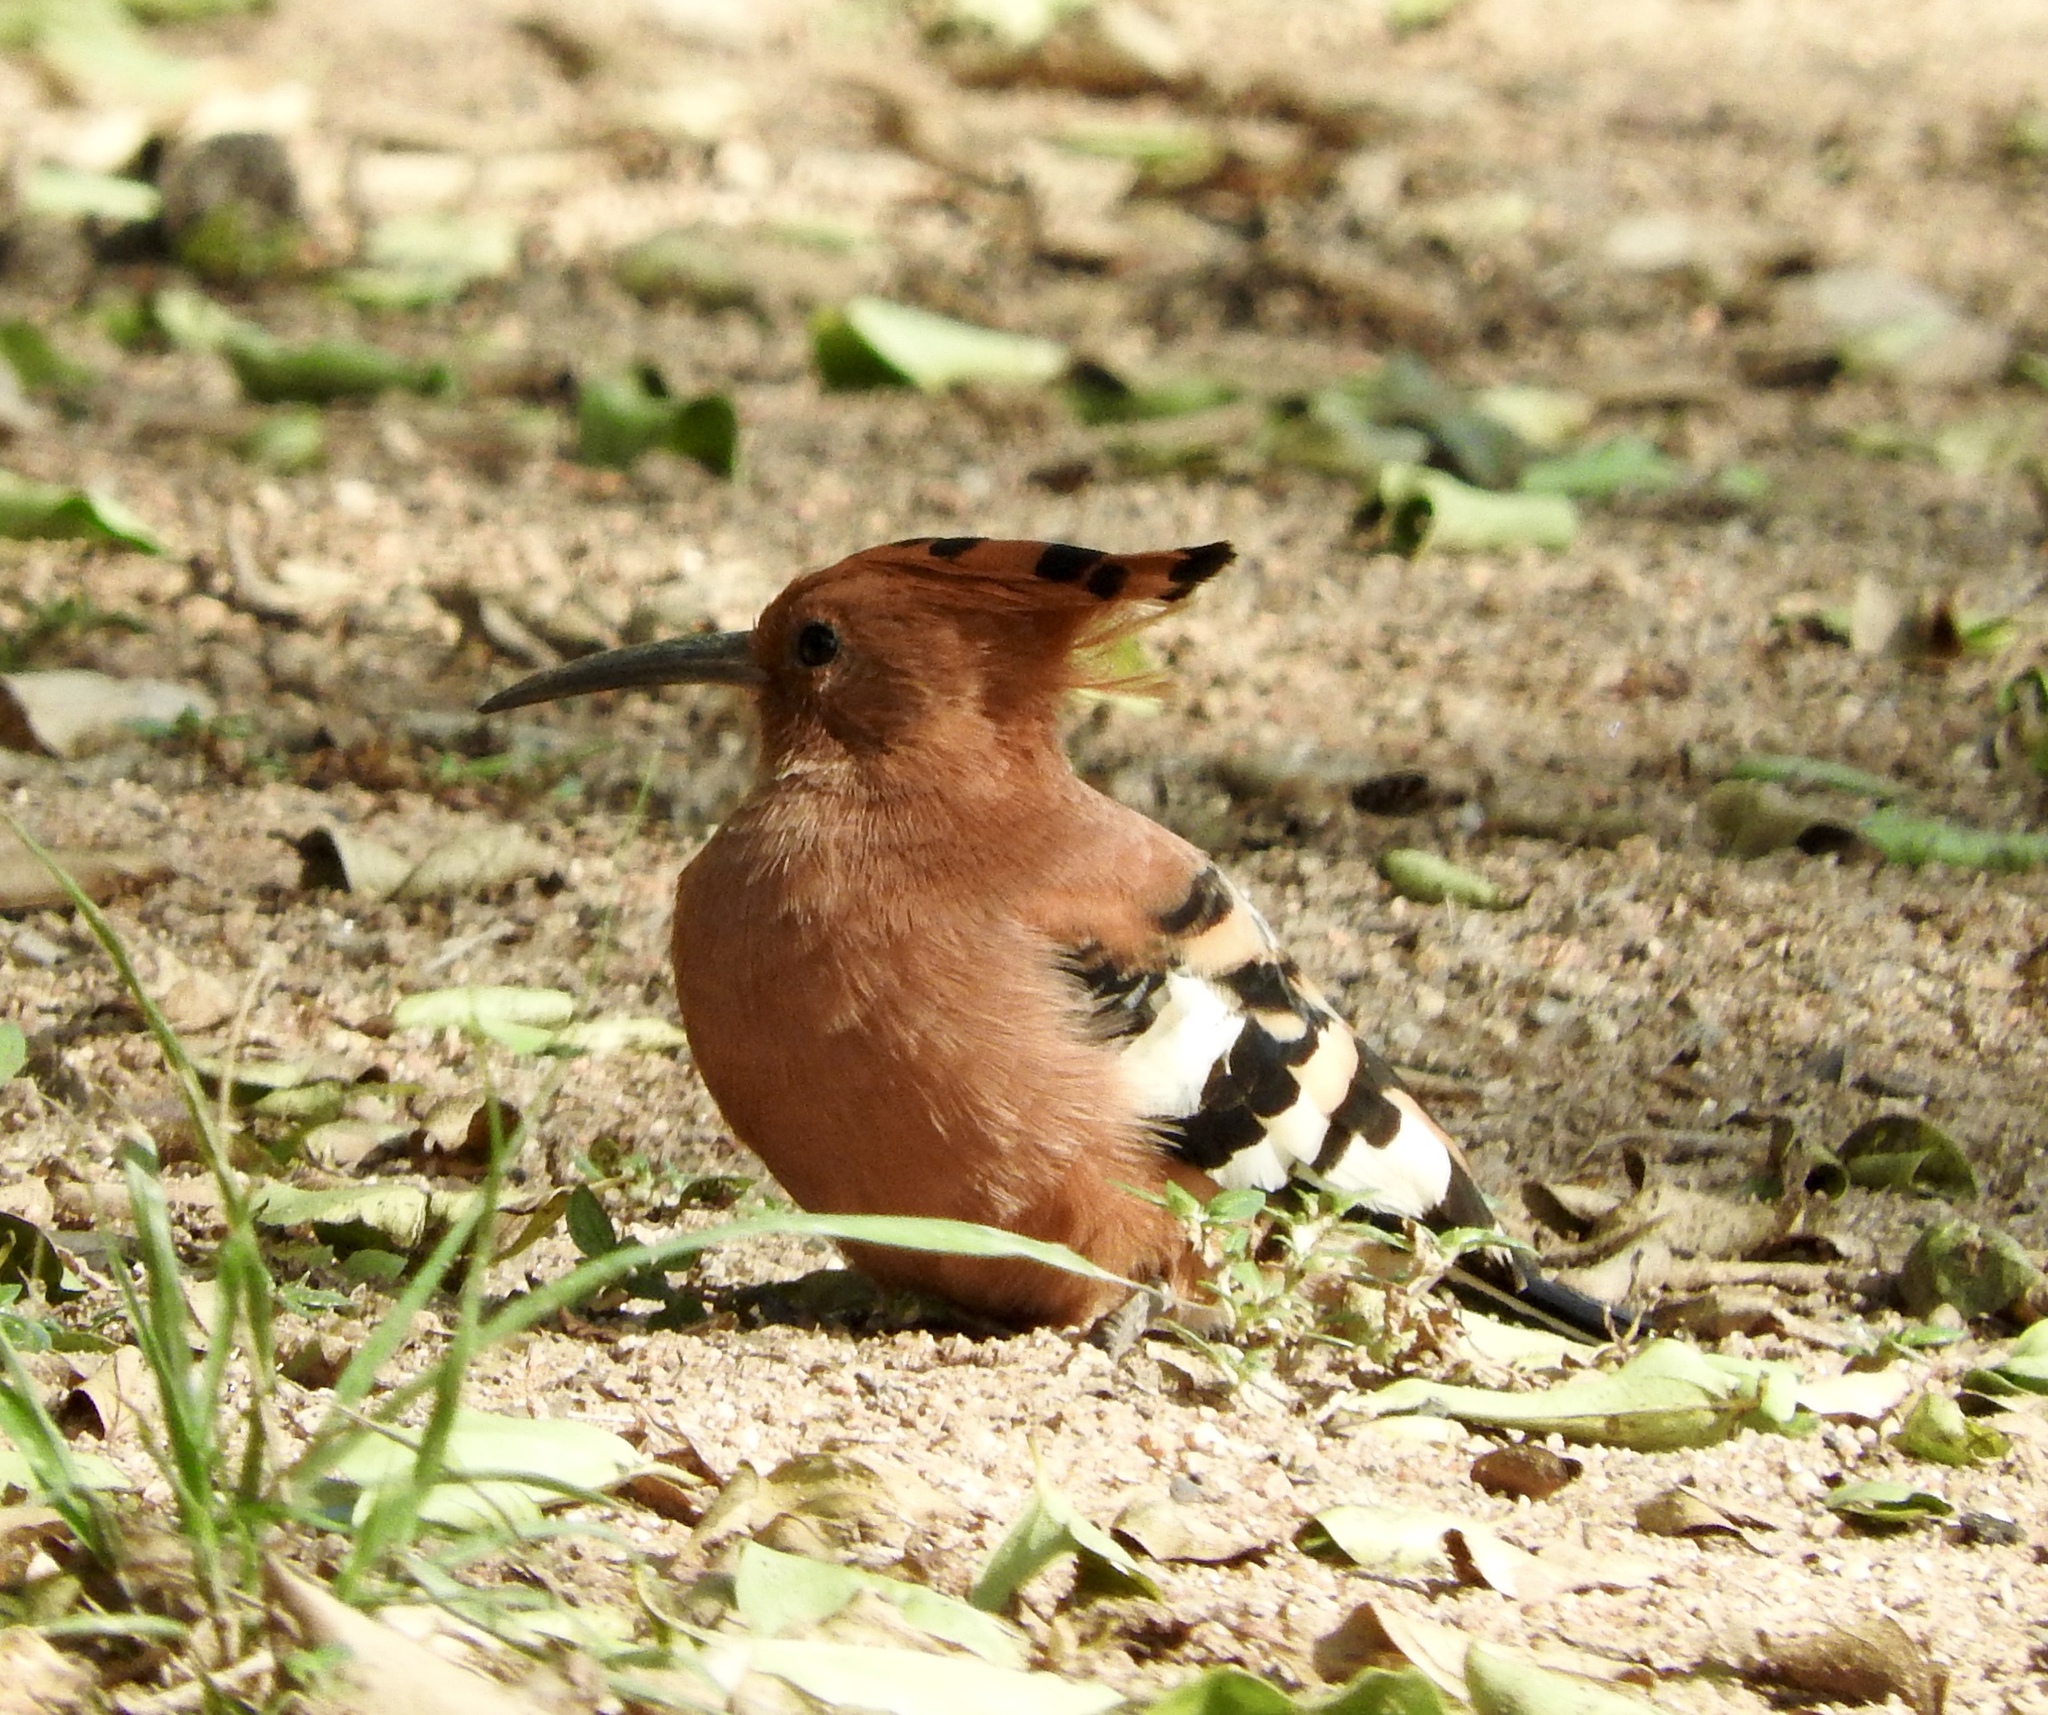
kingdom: Animalia
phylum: Chordata
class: Aves
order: Bucerotiformes
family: Upupidae
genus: Upupa
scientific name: Upupa africana
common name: African hoopoe
